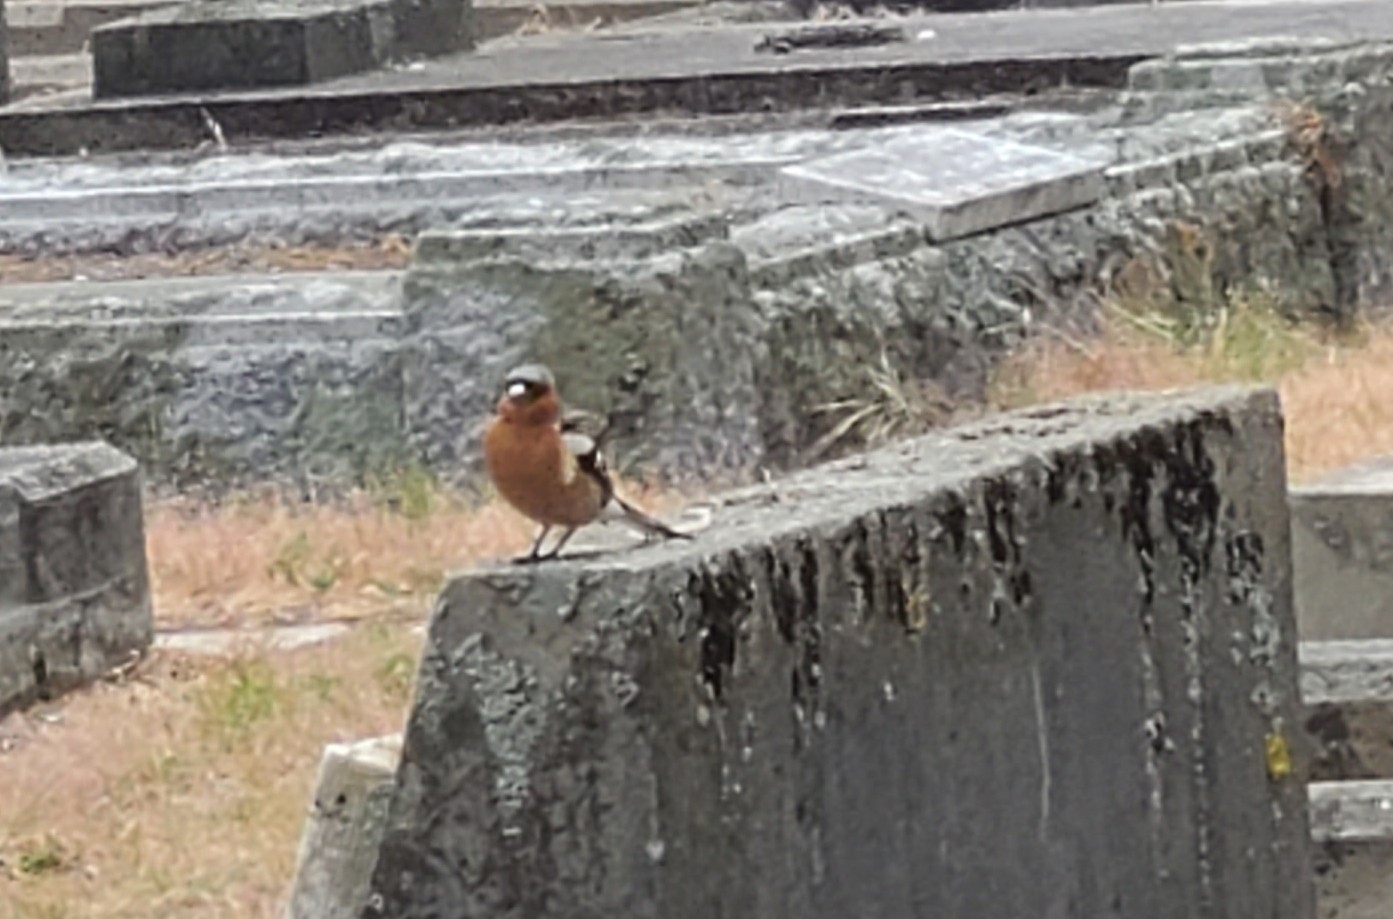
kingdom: Animalia
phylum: Chordata
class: Aves
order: Passeriformes
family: Fringillidae
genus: Fringilla
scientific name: Fringilla coelebs
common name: Common chaffinch
